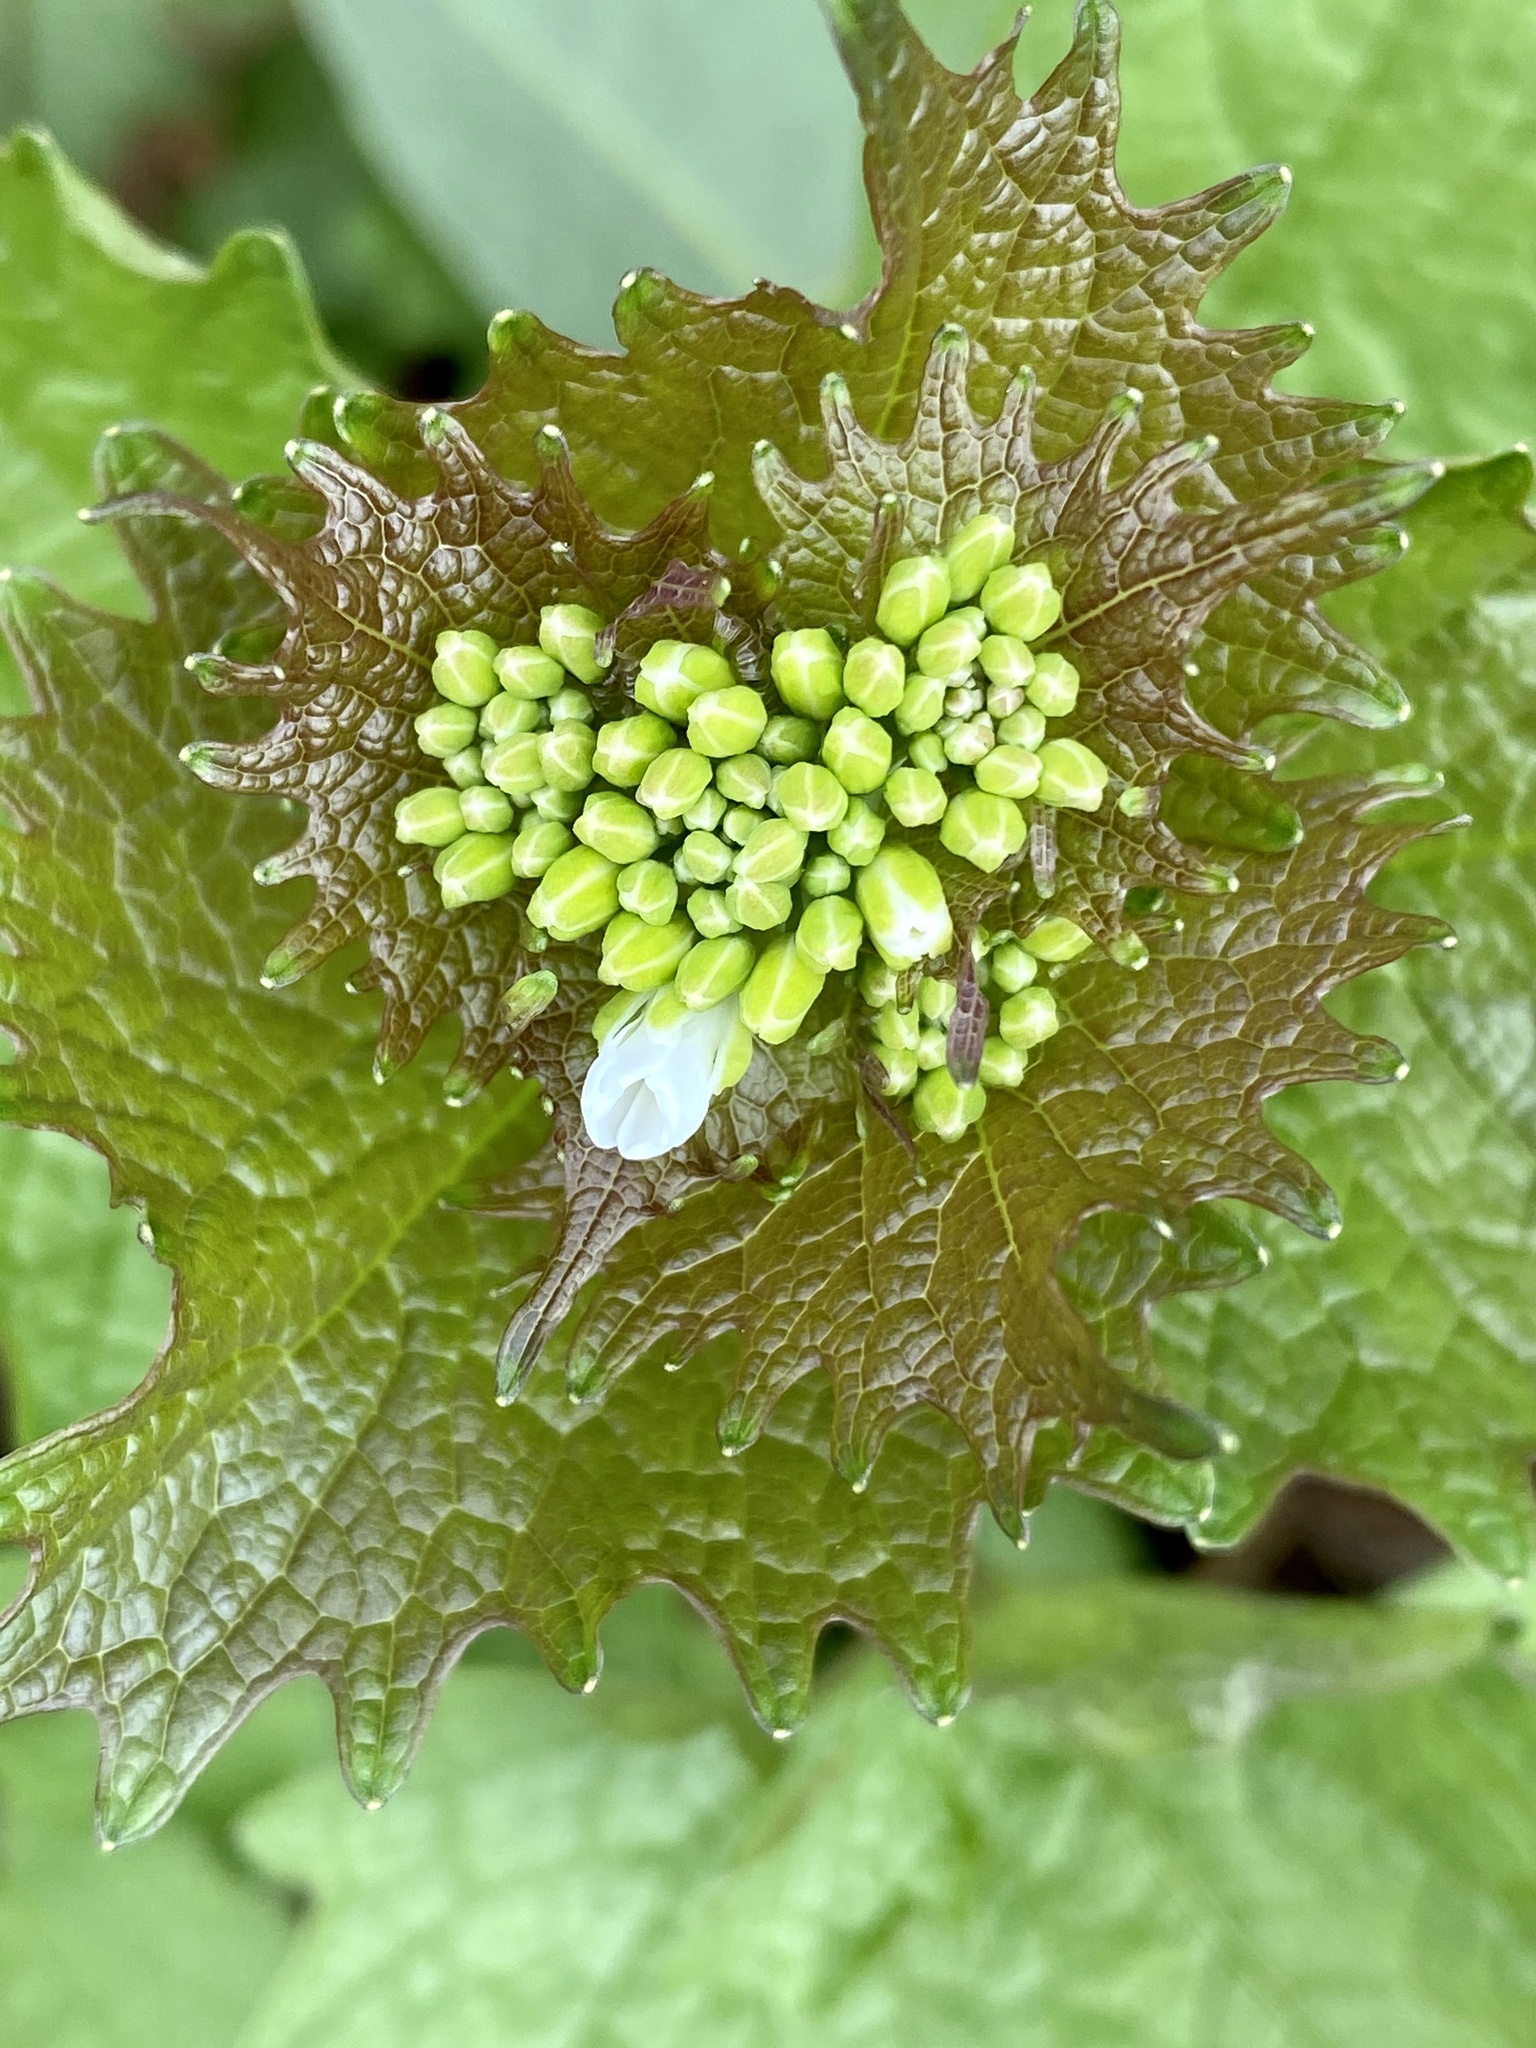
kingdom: Plantae
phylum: Tracheophyta
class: Magnoliopsida
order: Brassicales
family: Brassicaceae
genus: Alliaria
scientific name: Alliaria petiolata
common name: Garlic mustard
